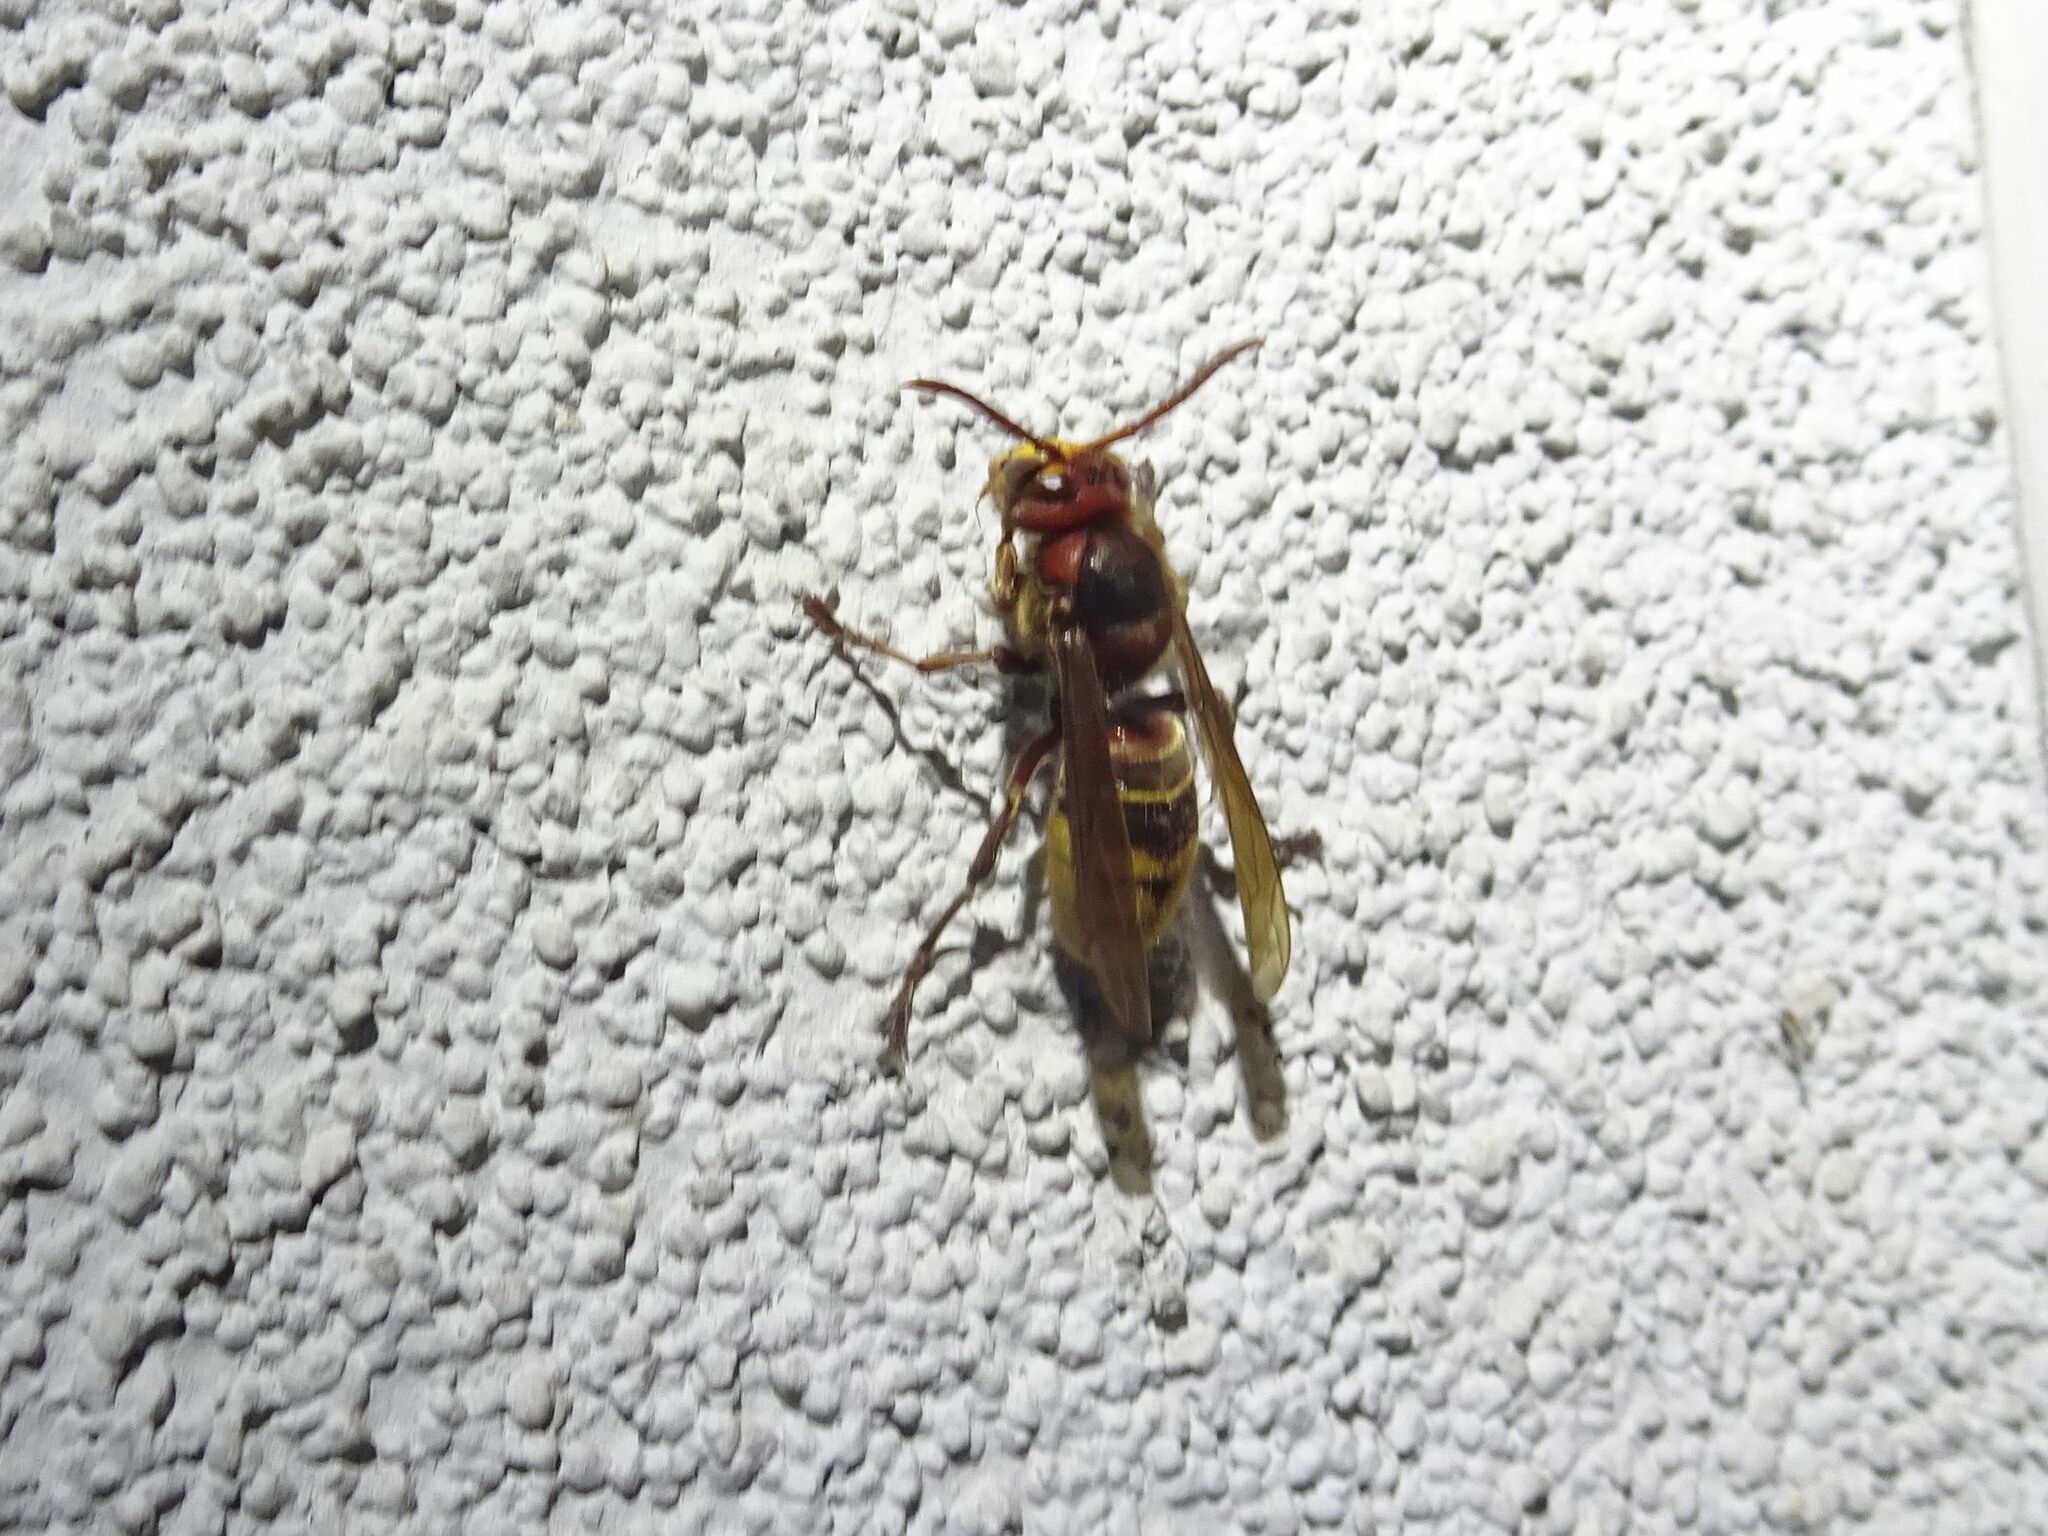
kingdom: Animalia
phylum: Arthropoda
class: Insecta
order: Hymenoptera
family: Vespidae
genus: Vespa
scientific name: Vespa crabro
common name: Hornet
